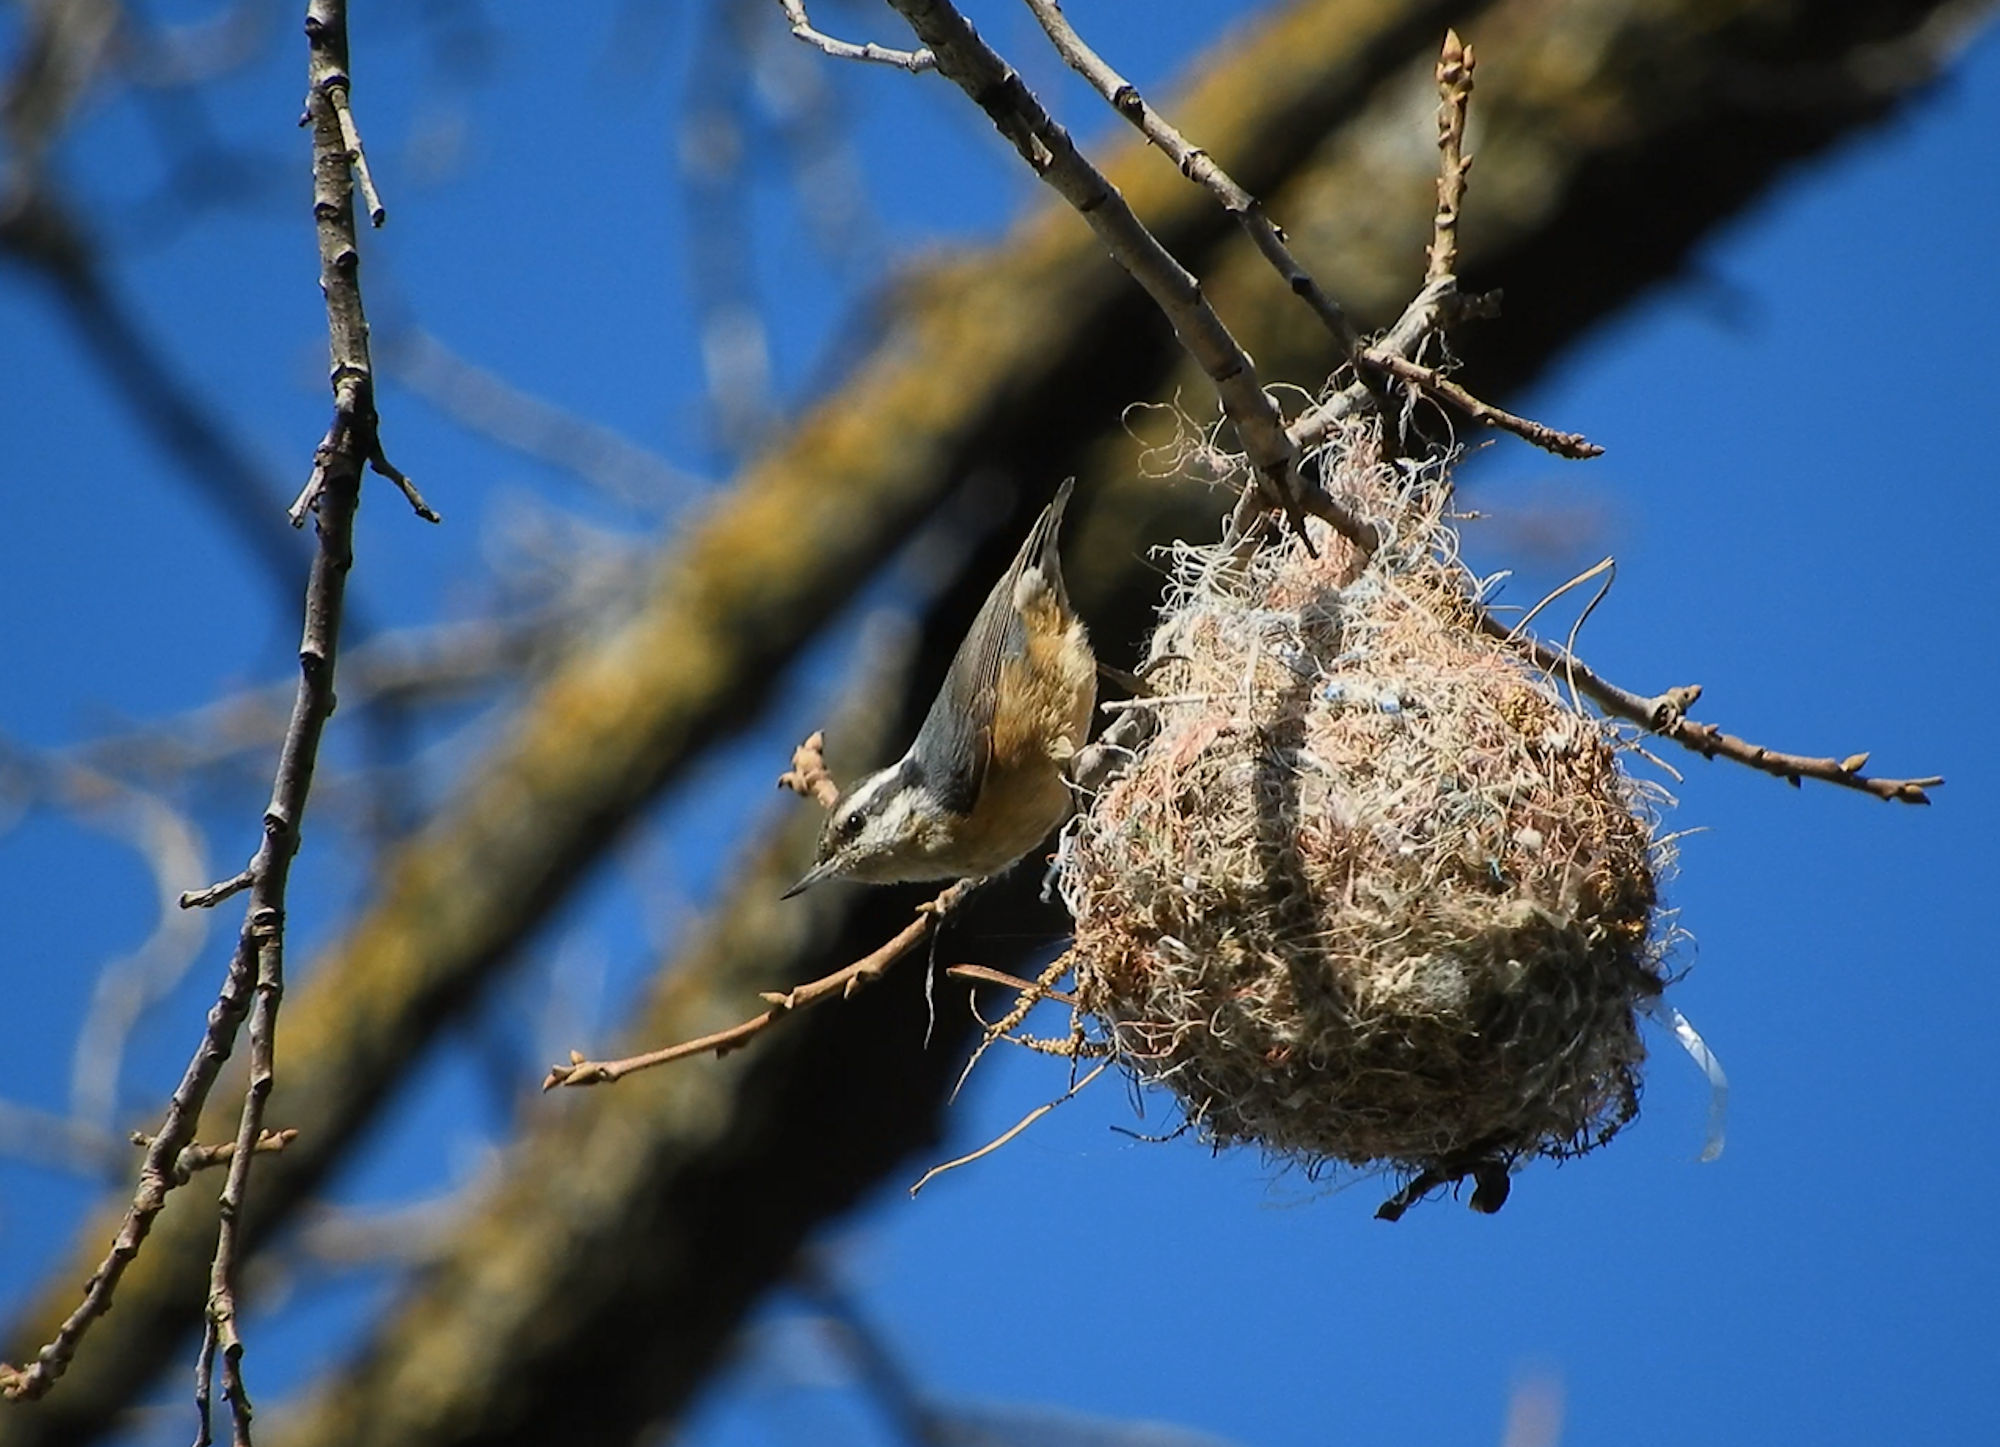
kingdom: Animalia
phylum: Chordata
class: Aves
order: Passeriformes
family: Sittidae
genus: Sitta
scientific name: Sitta canadensis
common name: Red-breasted nuthatch
